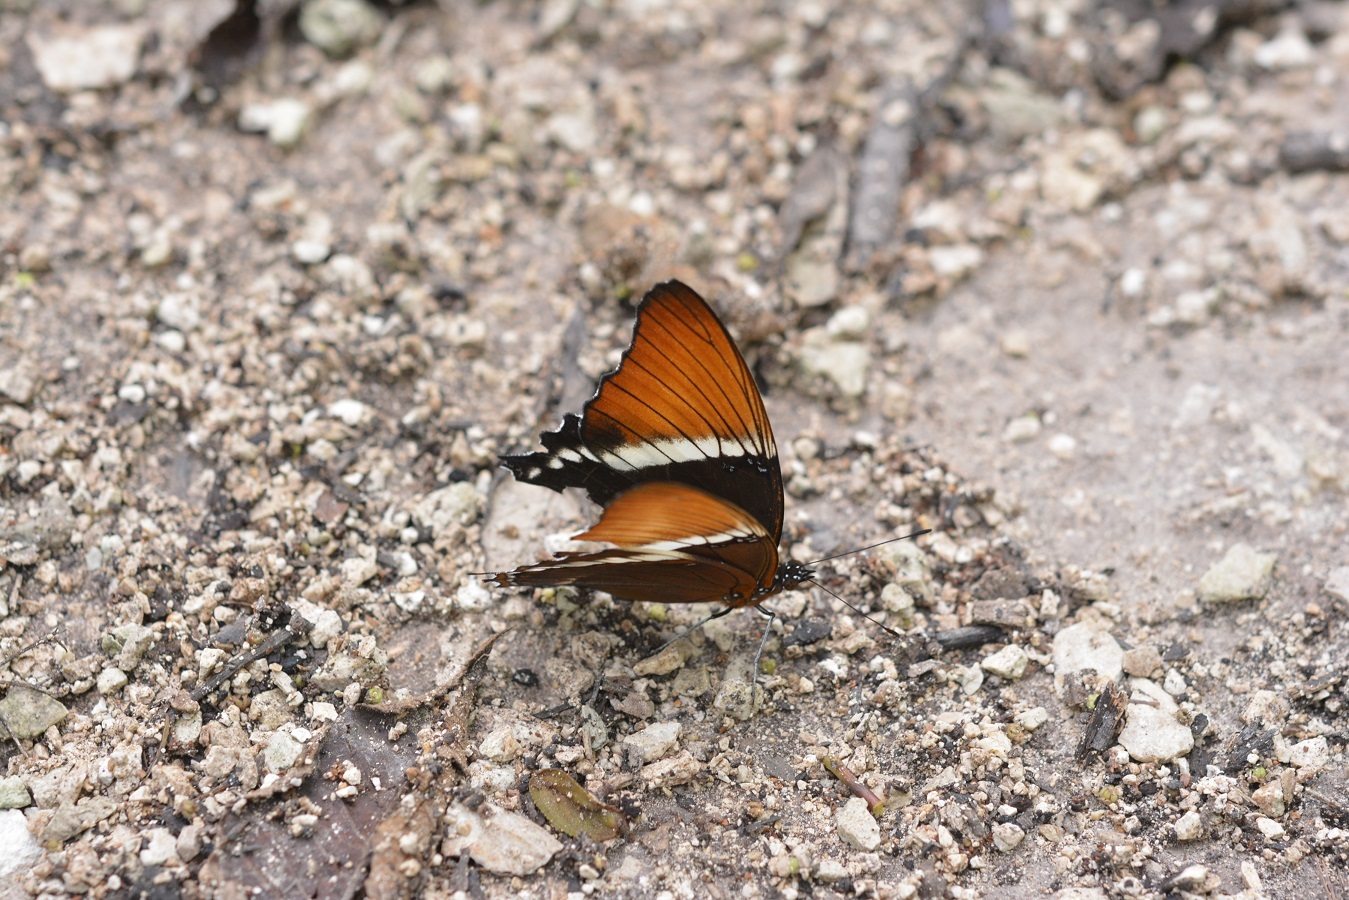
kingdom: Animalia
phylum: Arthropoda
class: Insecta
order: Lepidoptera
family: Nymphalidae
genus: Siproeta
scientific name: Siproeta epaphus
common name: Rusty-tipped page
